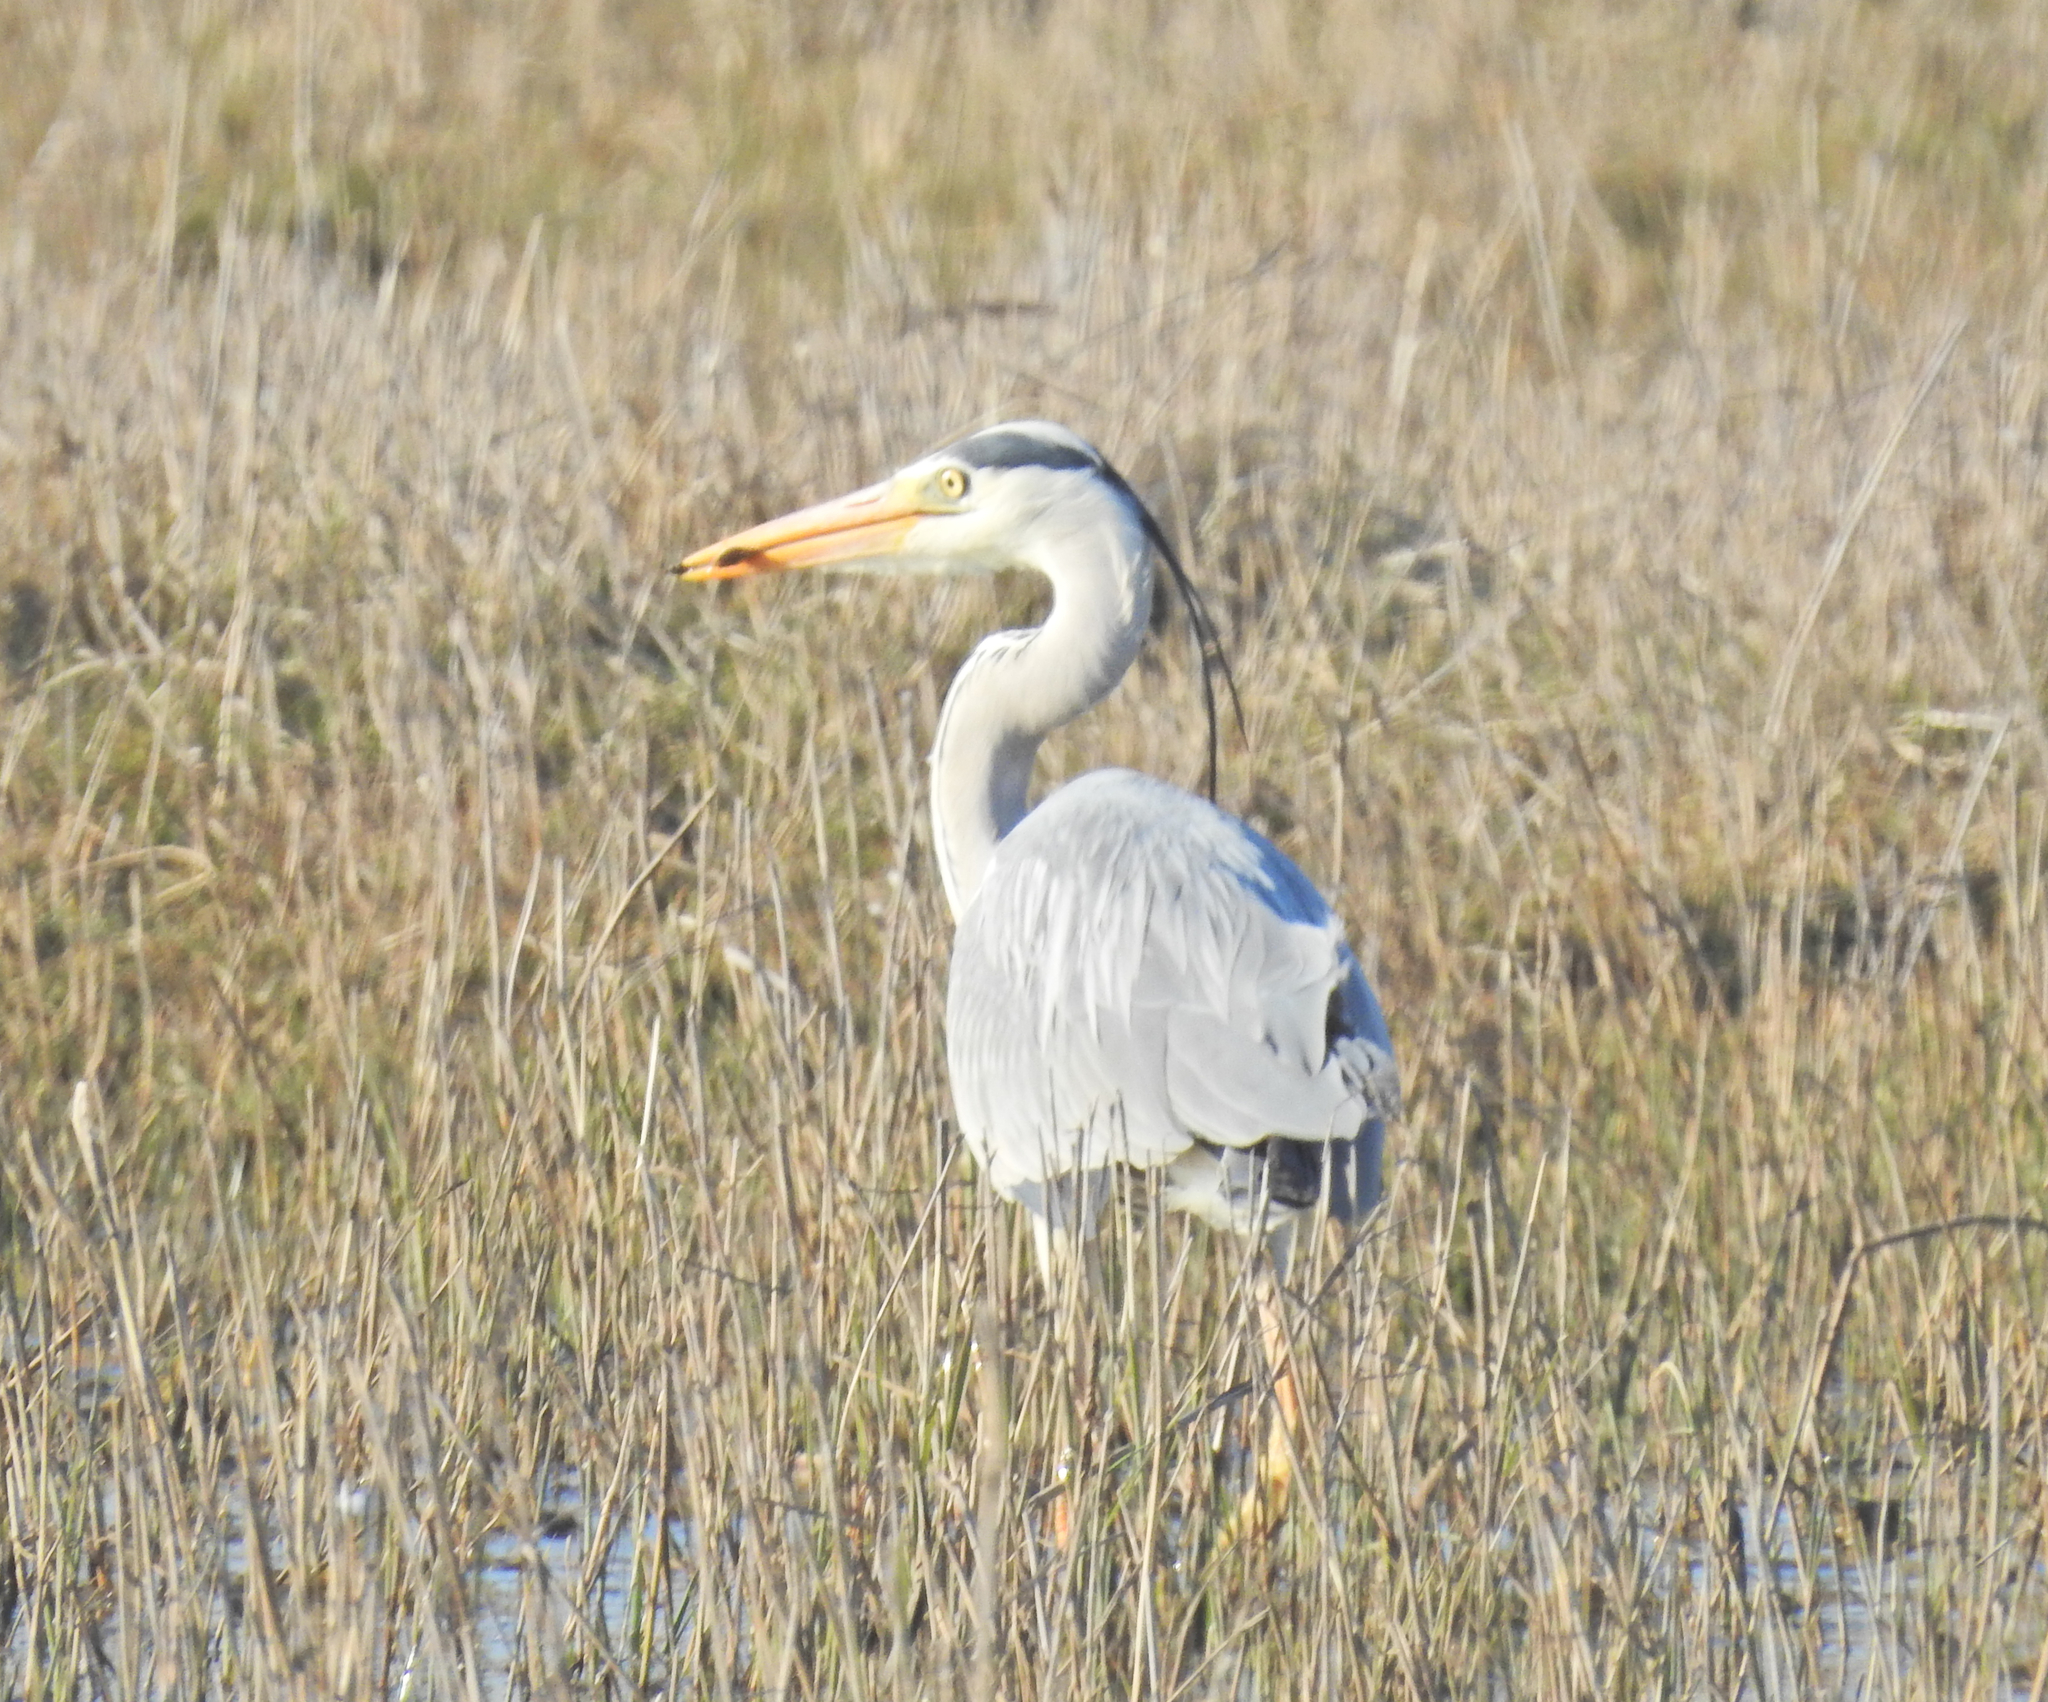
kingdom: Animalia
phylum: Chordata
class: Aves
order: Pelecaniformes
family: Ardeidae
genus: Ardea
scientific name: Ardea cinerea
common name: Grey heron
